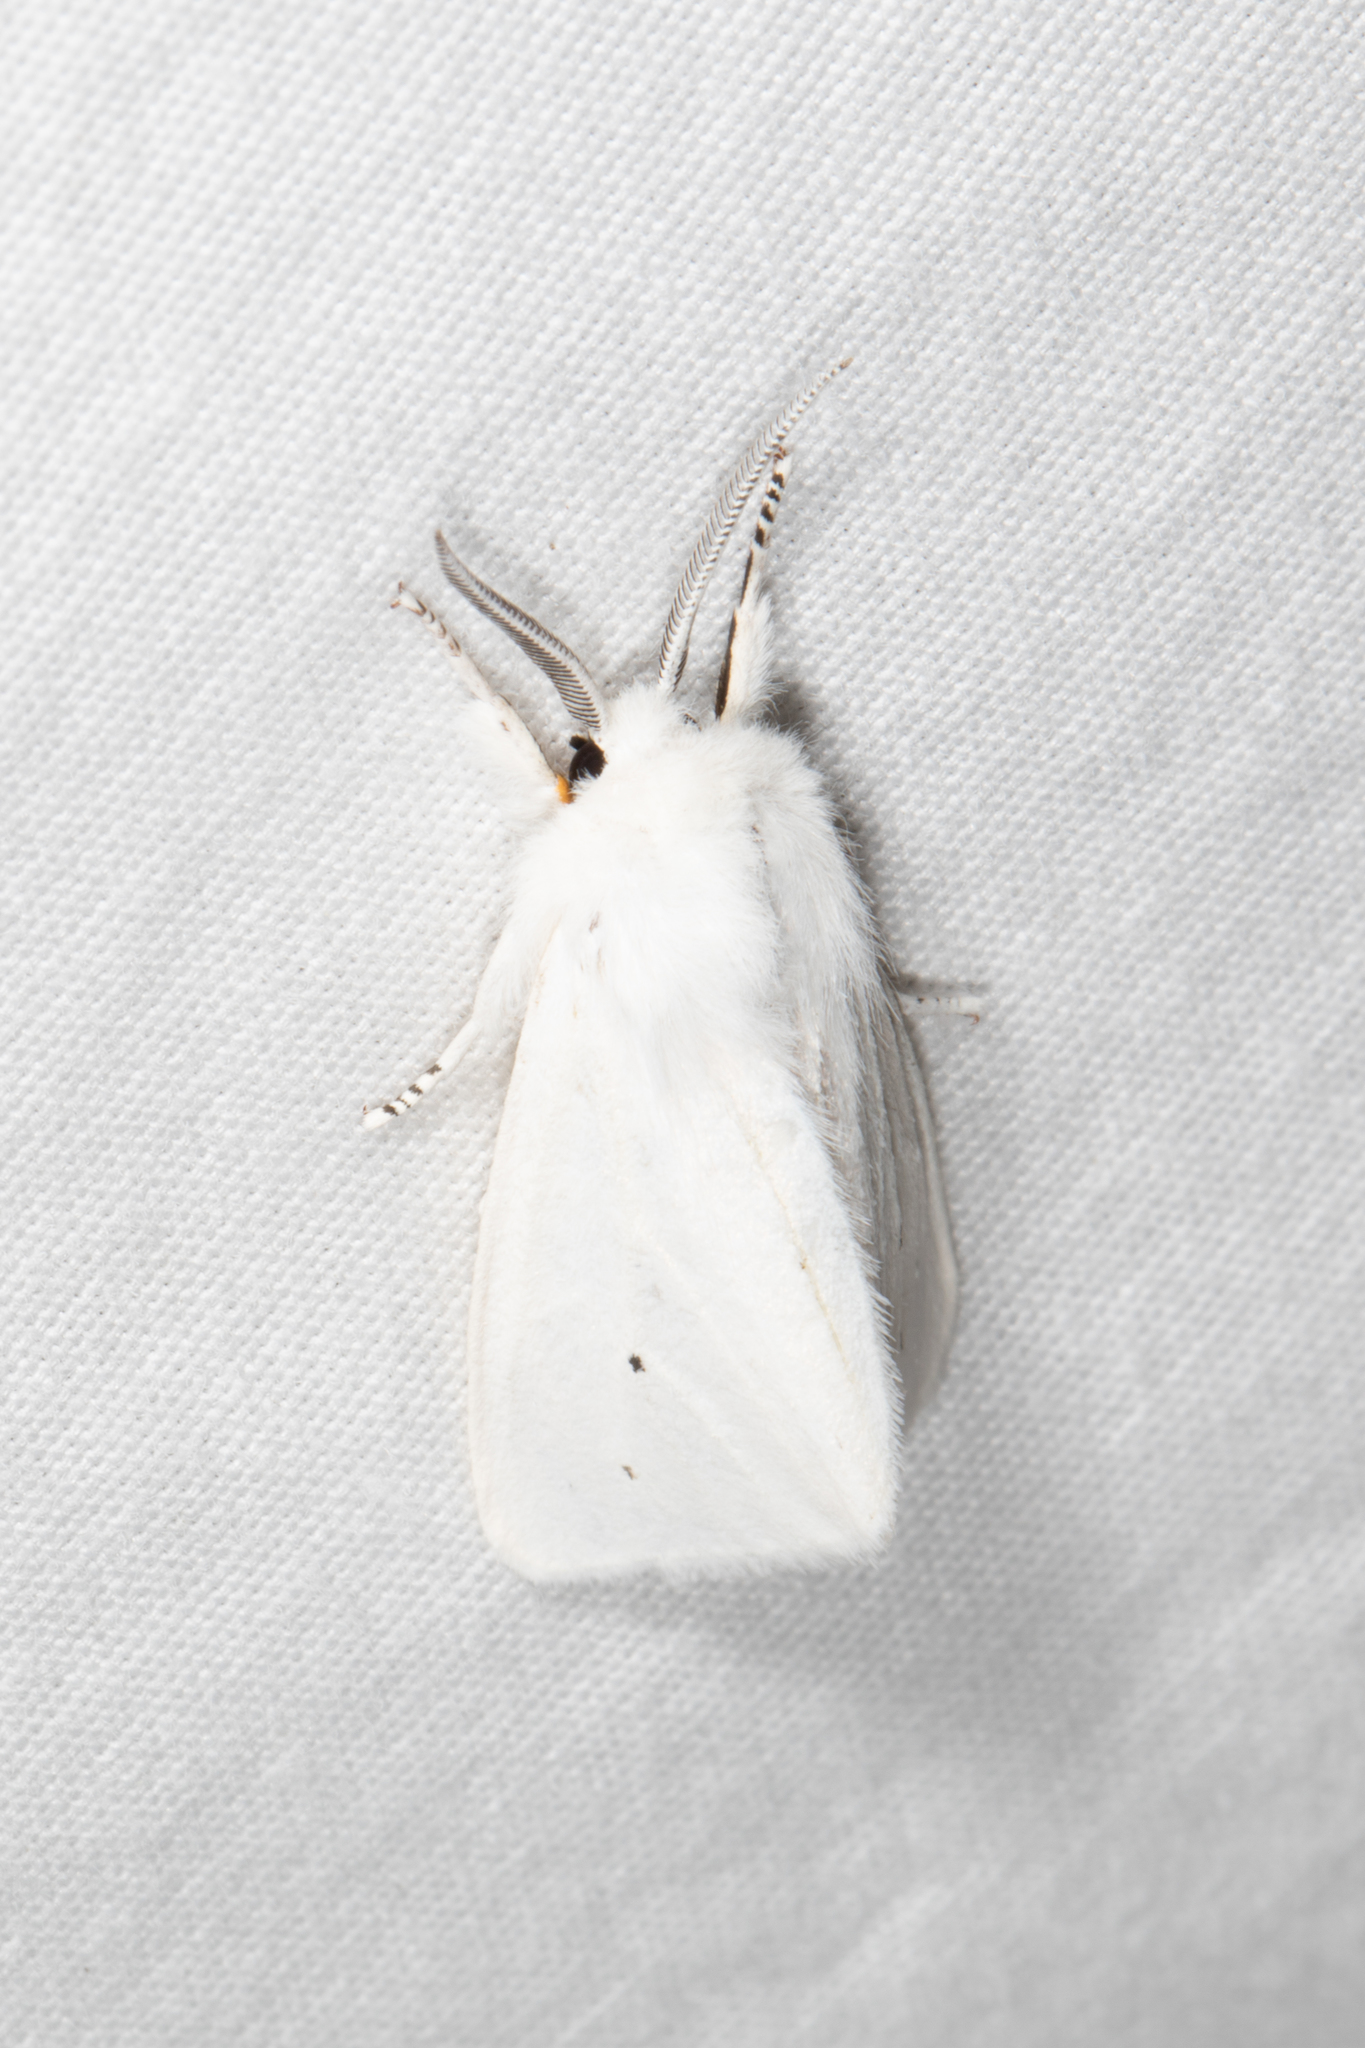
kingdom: Animalia
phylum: Arthropoda
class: Insecta
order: Lepidoptera
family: Erebidae
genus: Spilosoma
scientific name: Spilosoma virginica
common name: Virginia tiger moth
